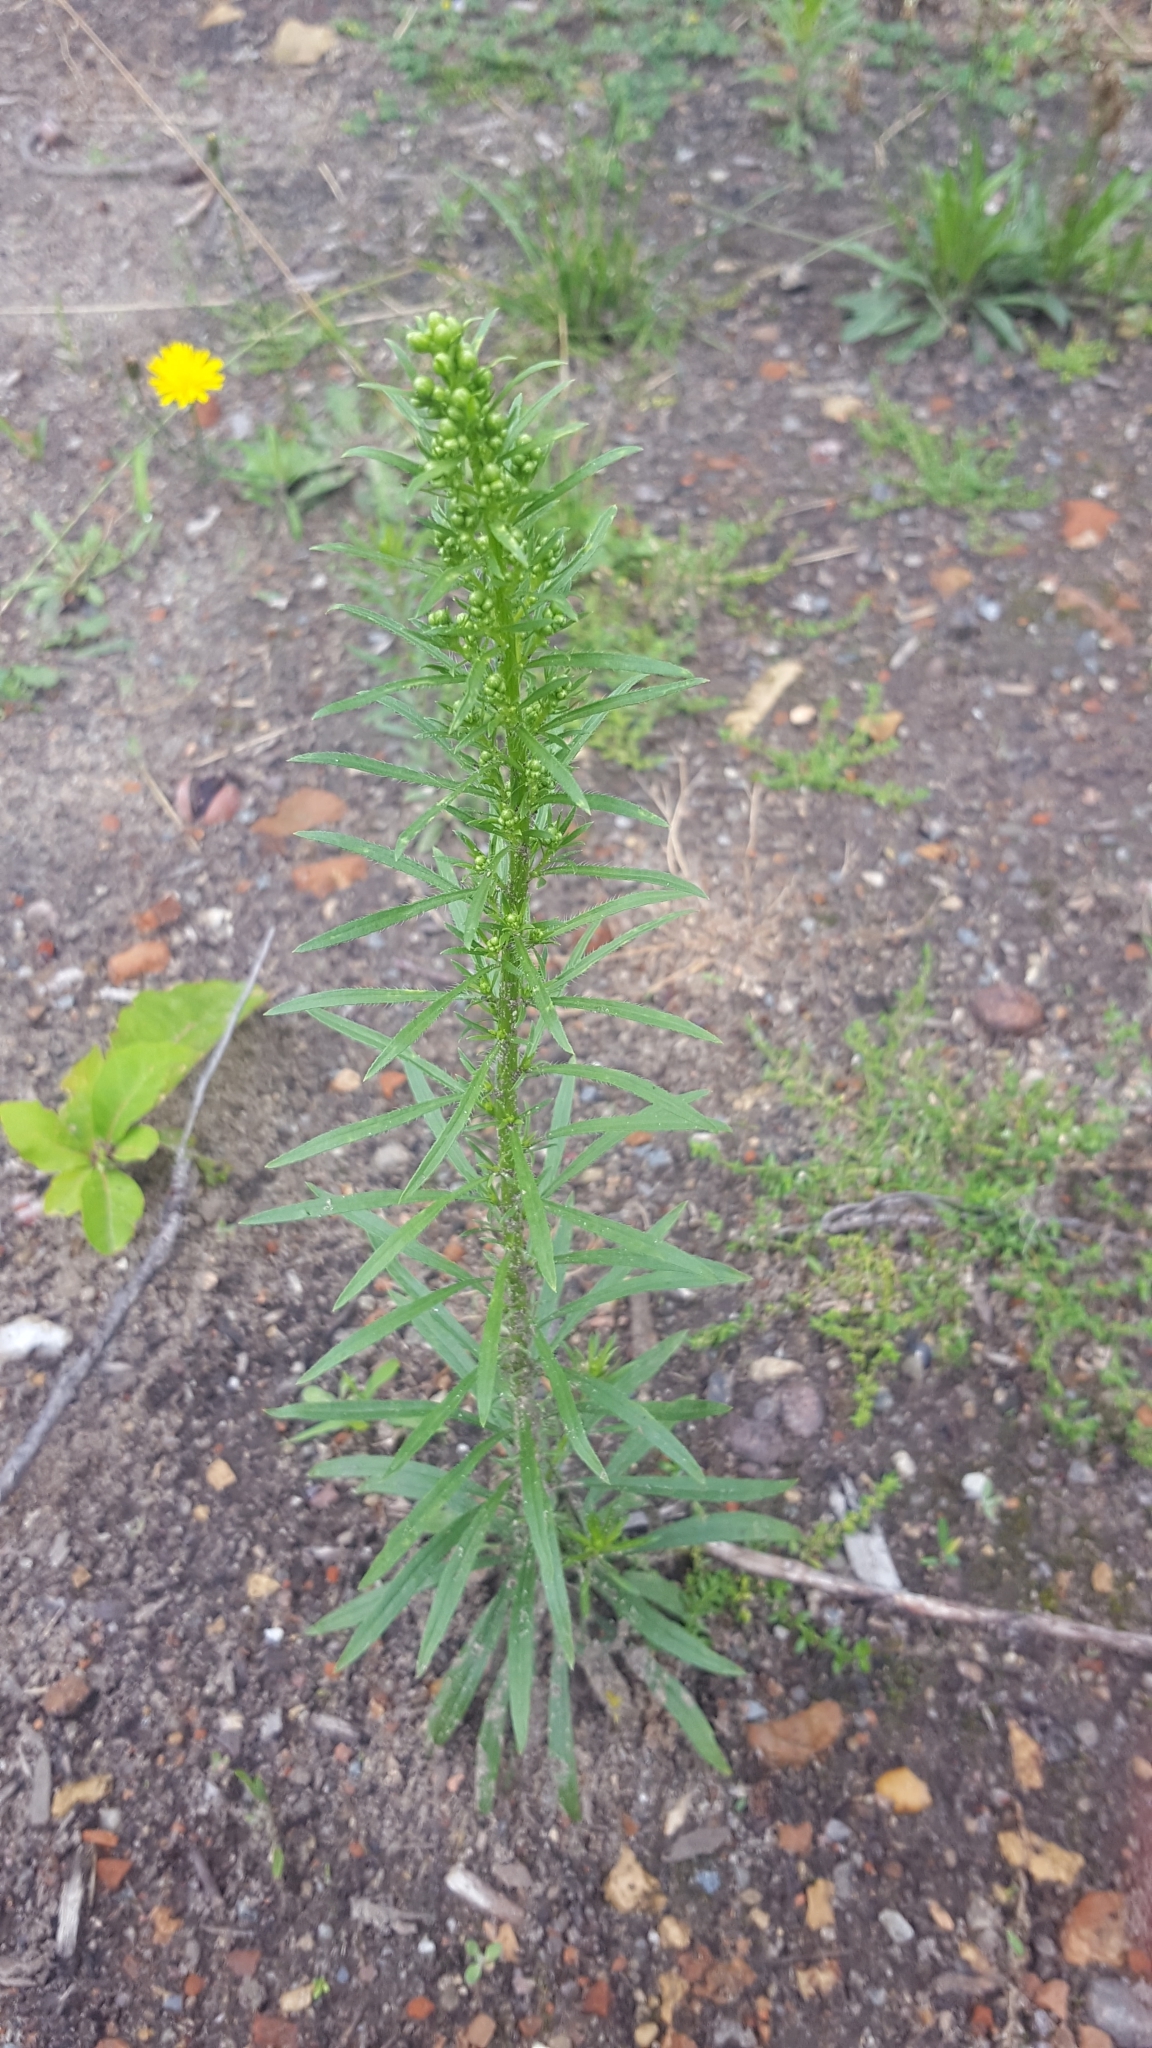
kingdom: Plantae
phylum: Tracheophyta
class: Magnoliopsida
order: Asterales
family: Asteraceae
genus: Erigeron
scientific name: Erigeron canadensis
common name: Canadian fleabane
